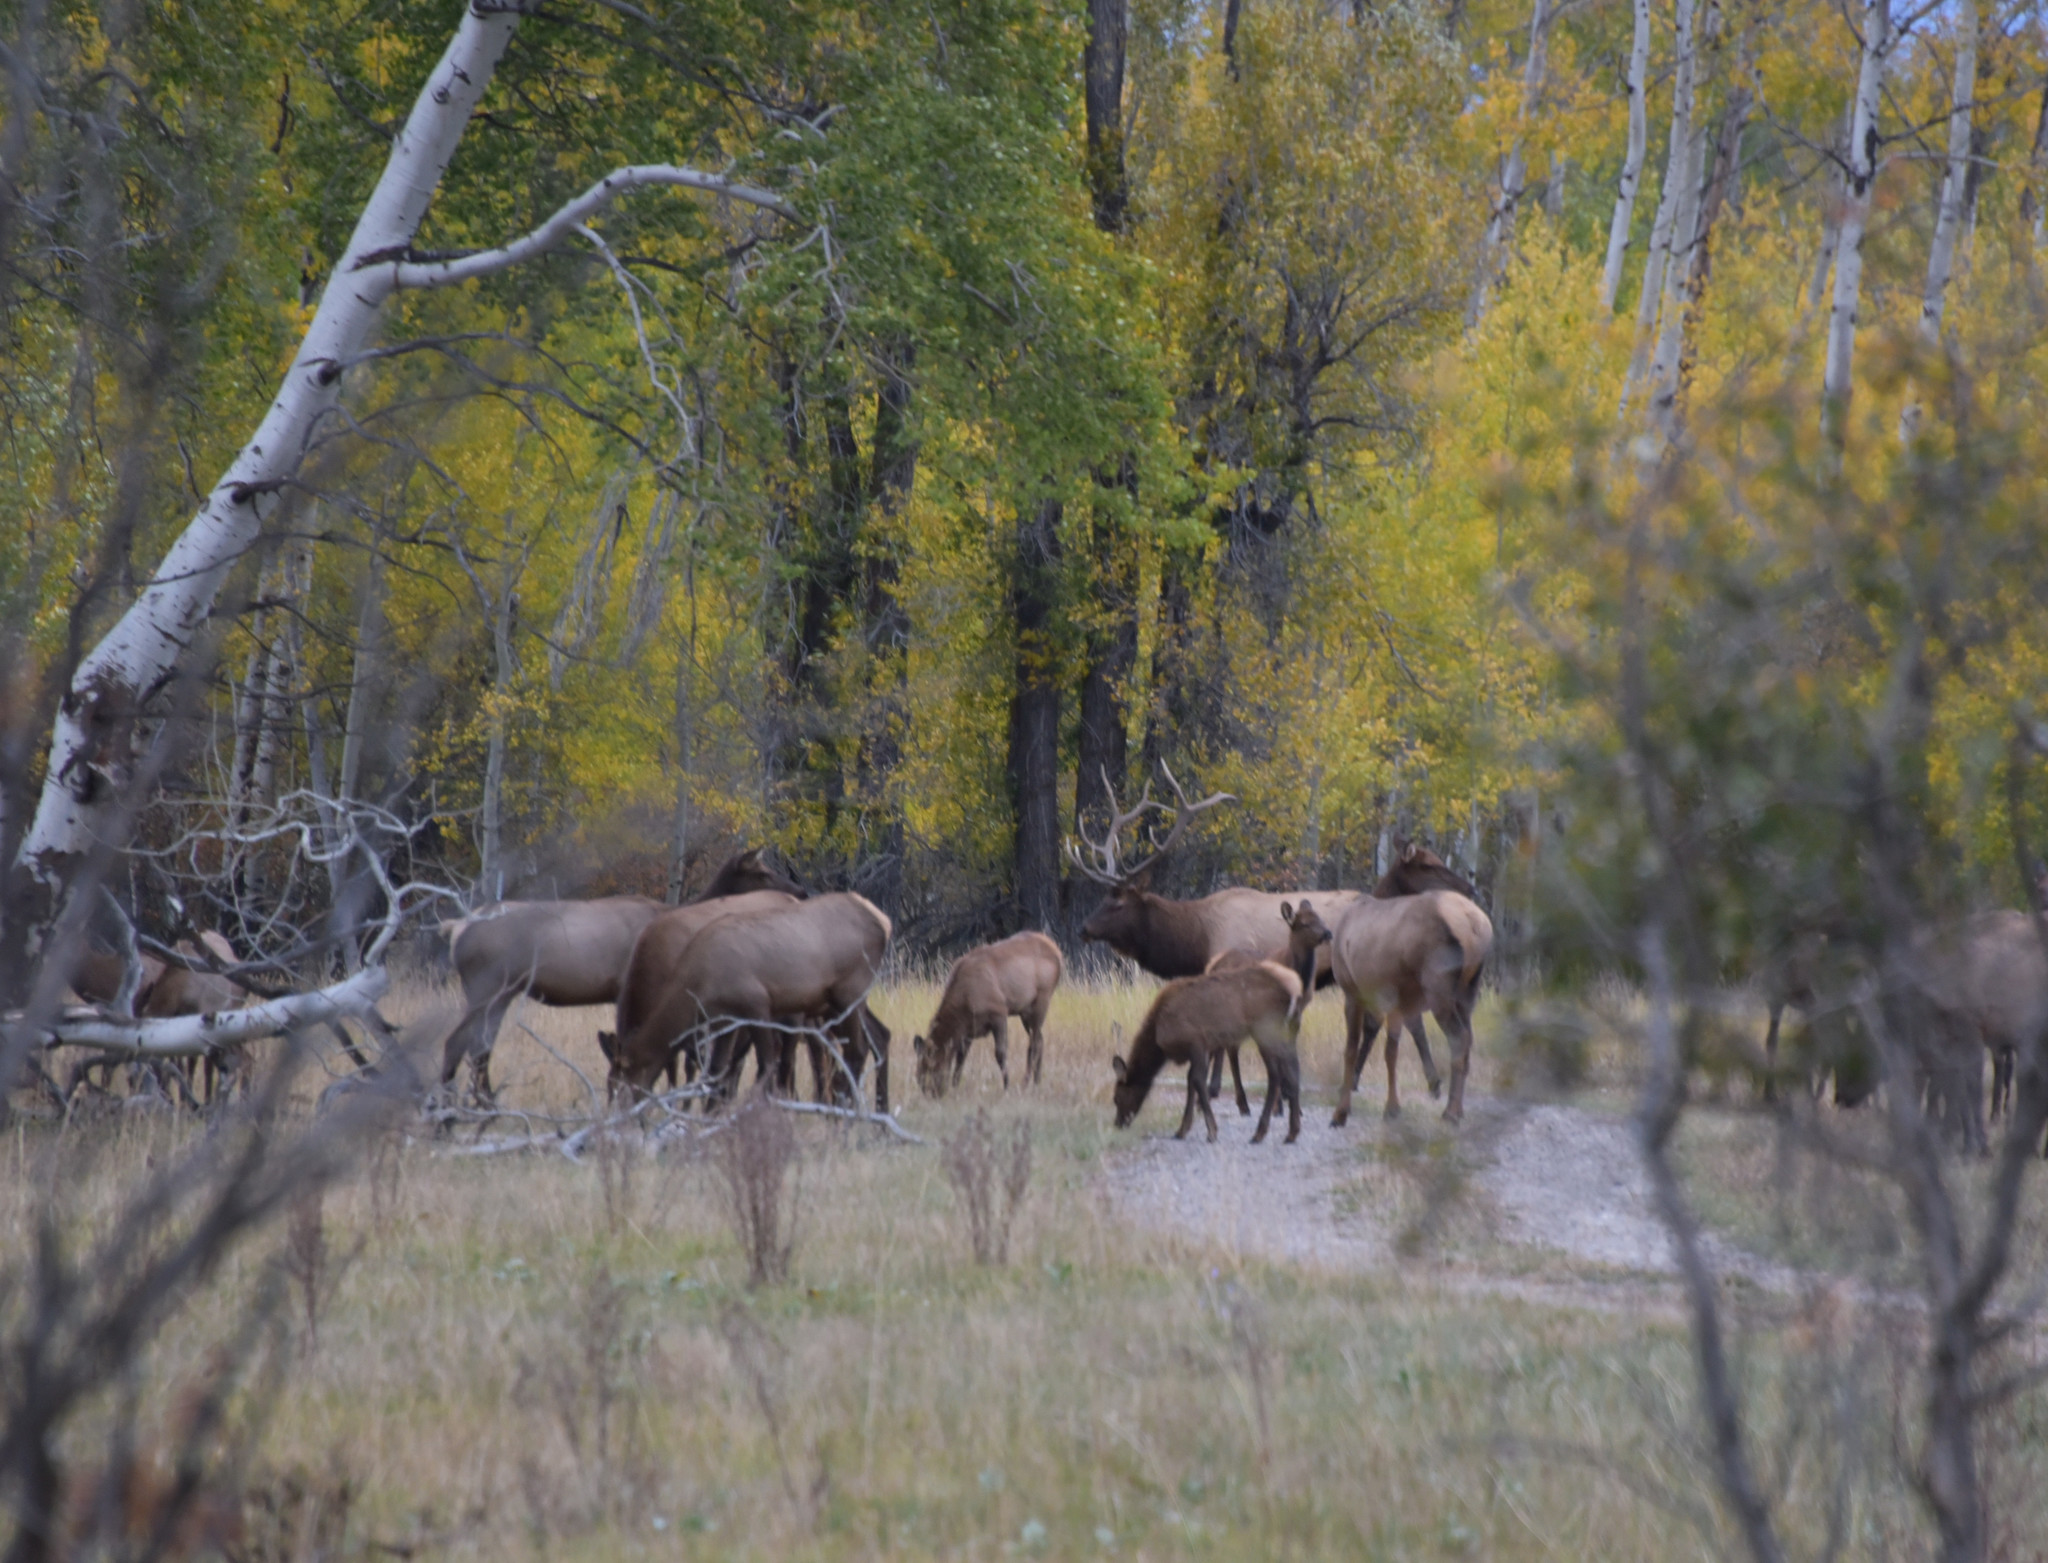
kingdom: Animalia
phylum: Chordata
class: Mammalia
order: Artiodactyla
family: Cervidae
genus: Cervus
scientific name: Cervus elaphus
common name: Red deer
